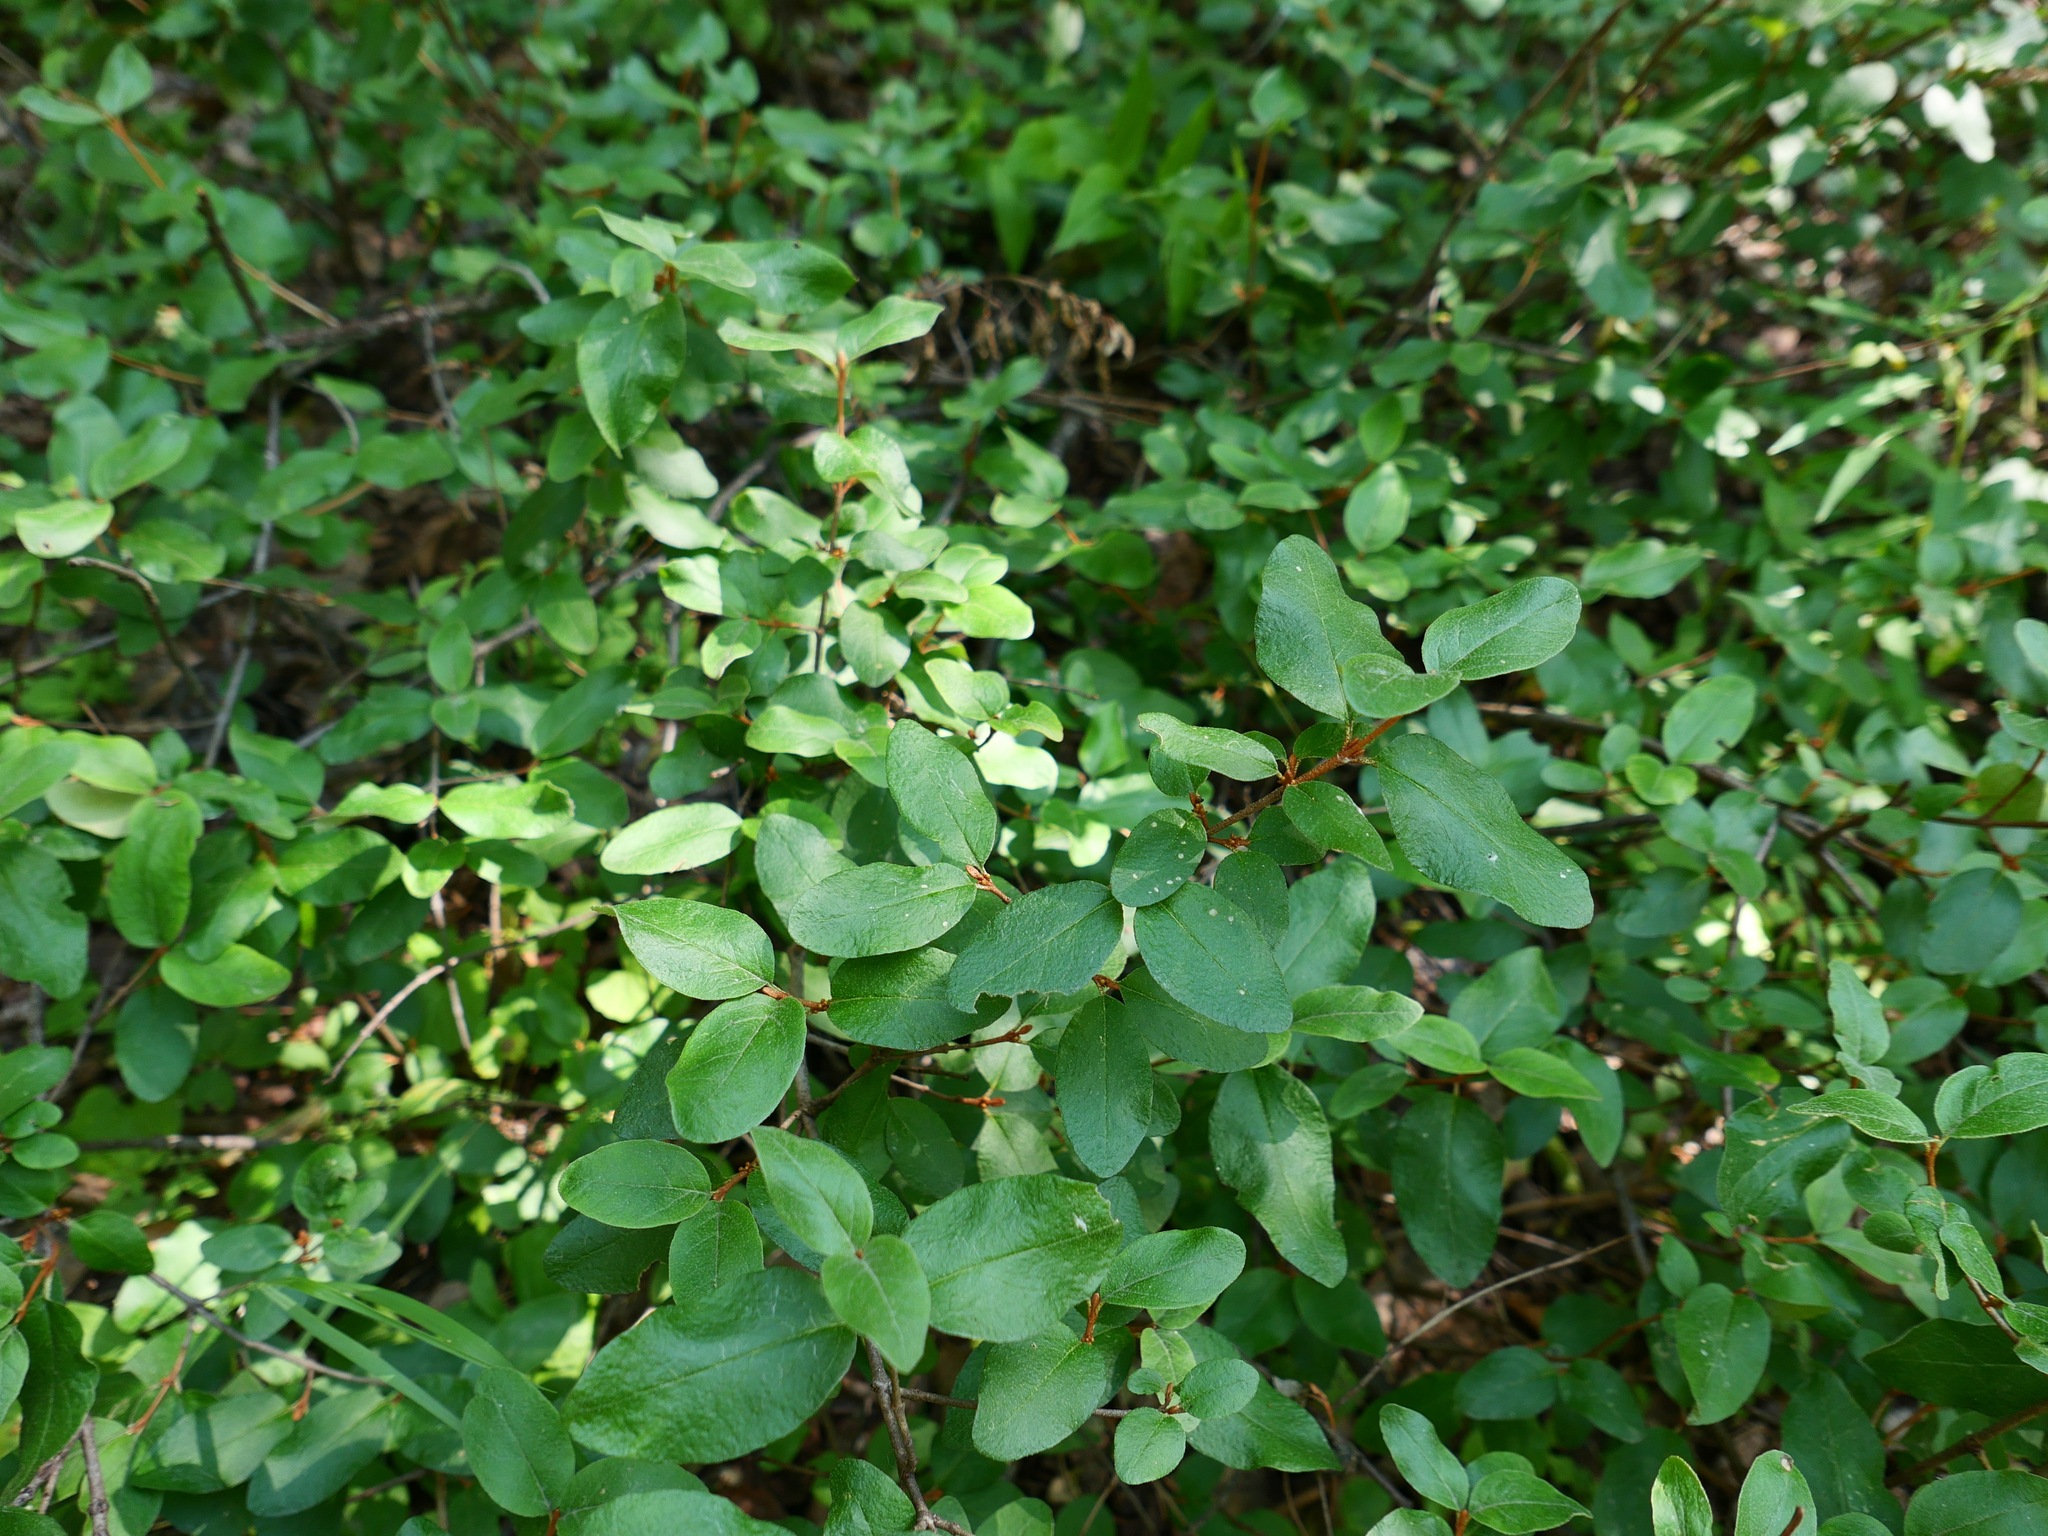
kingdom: Plantae
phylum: Tracheophyta
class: Magnoliopsida
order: Rosales
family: Elaeagnaceae
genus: Shepherdia
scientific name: Shepherdia canadensis
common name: Soapberry
